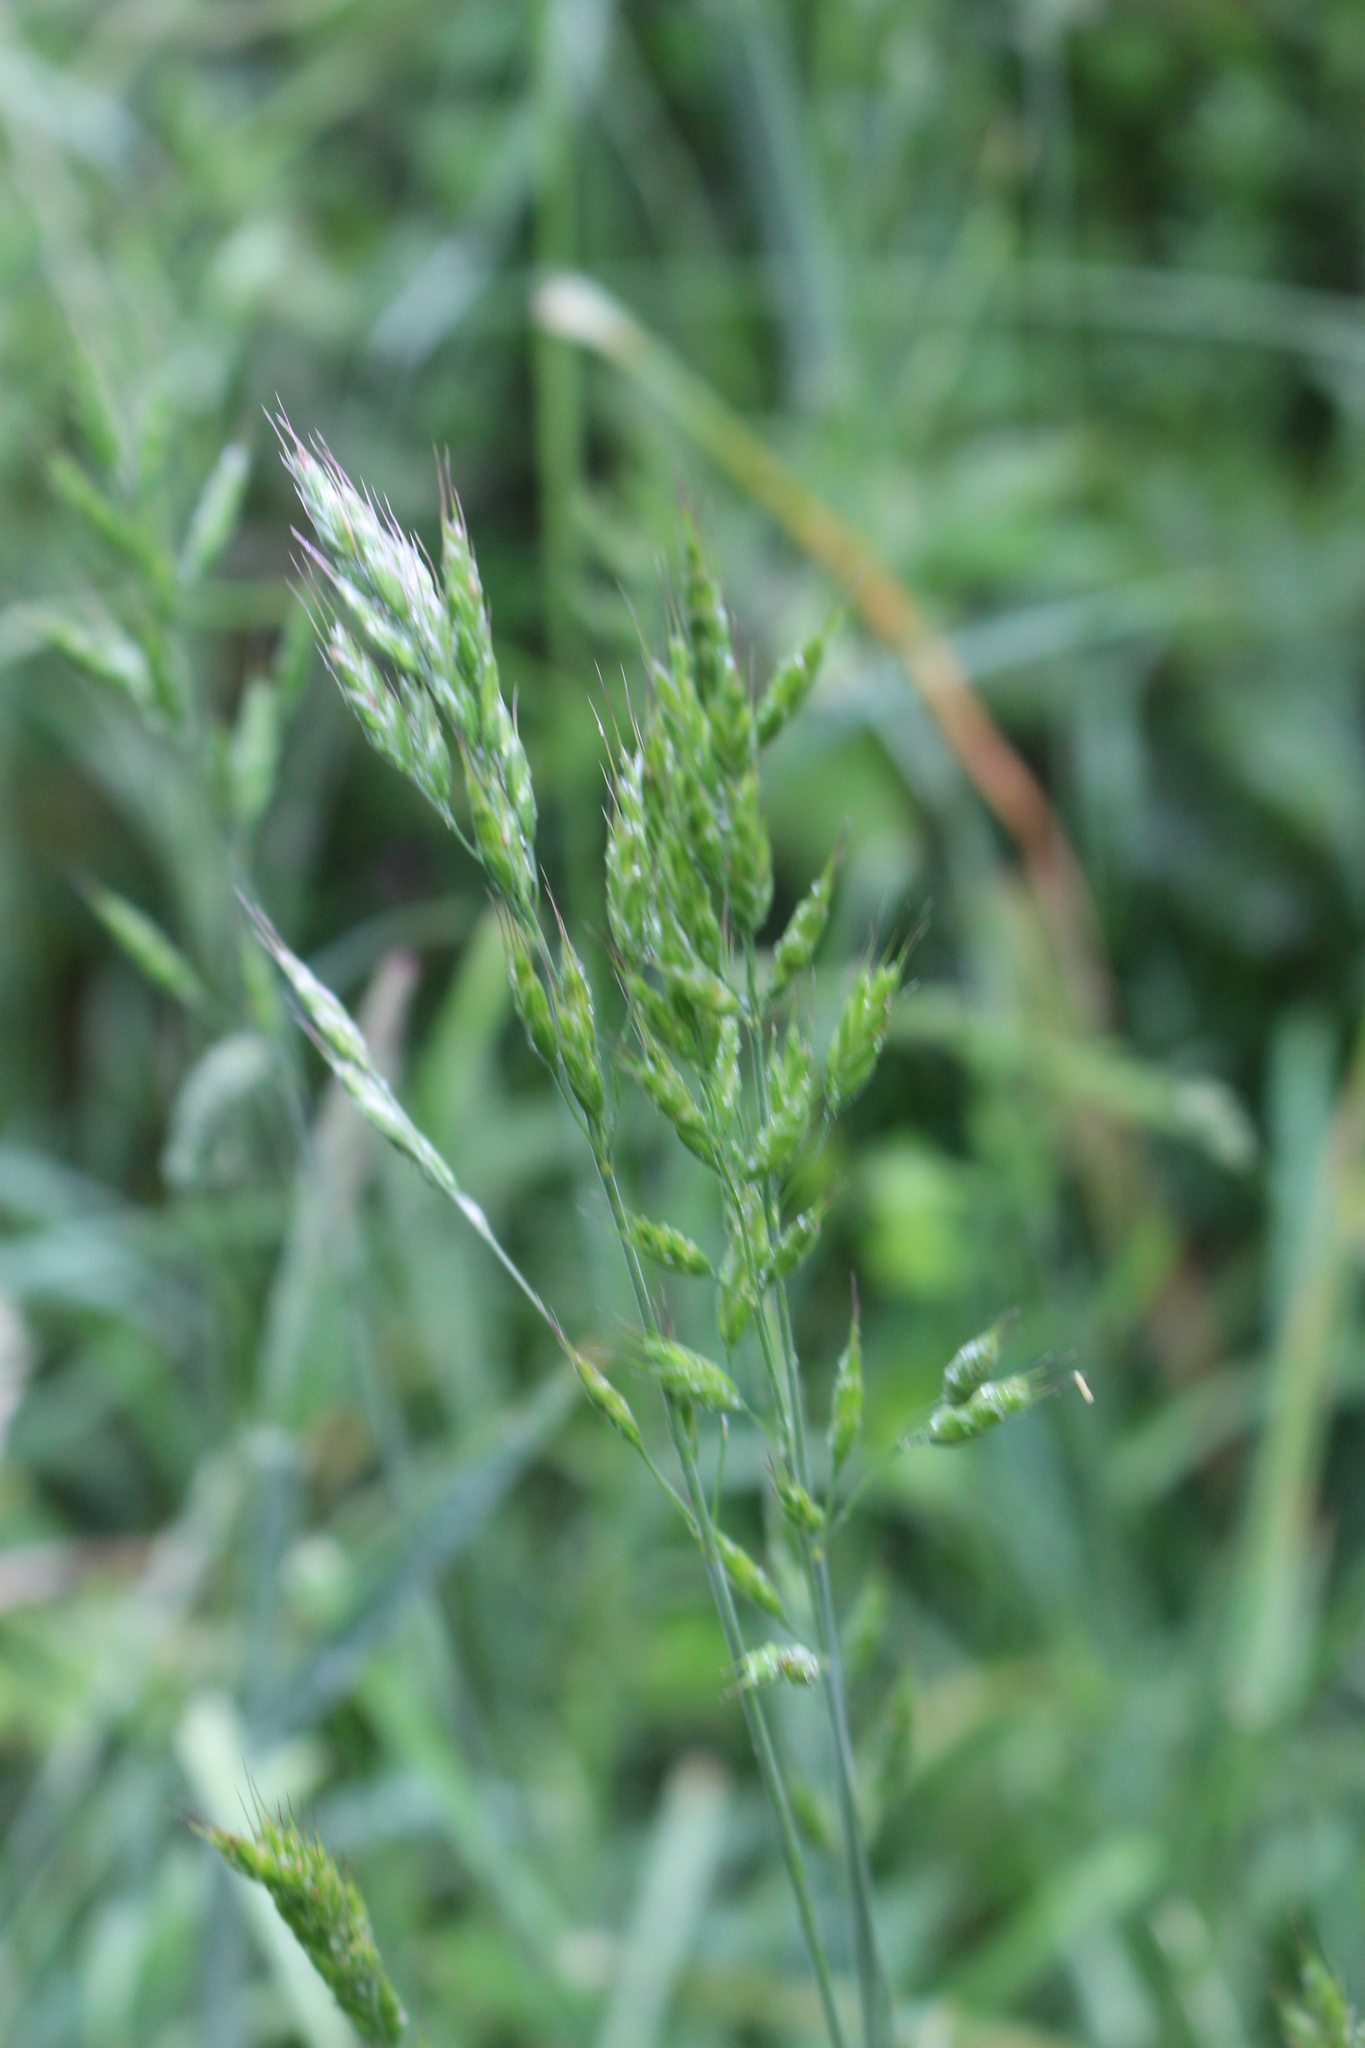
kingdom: Plantae
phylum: Tracheophyta
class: Liliopsida
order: Poales
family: Poaceae
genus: Bromus
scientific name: Bromus hordeaceus
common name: Soft brome
